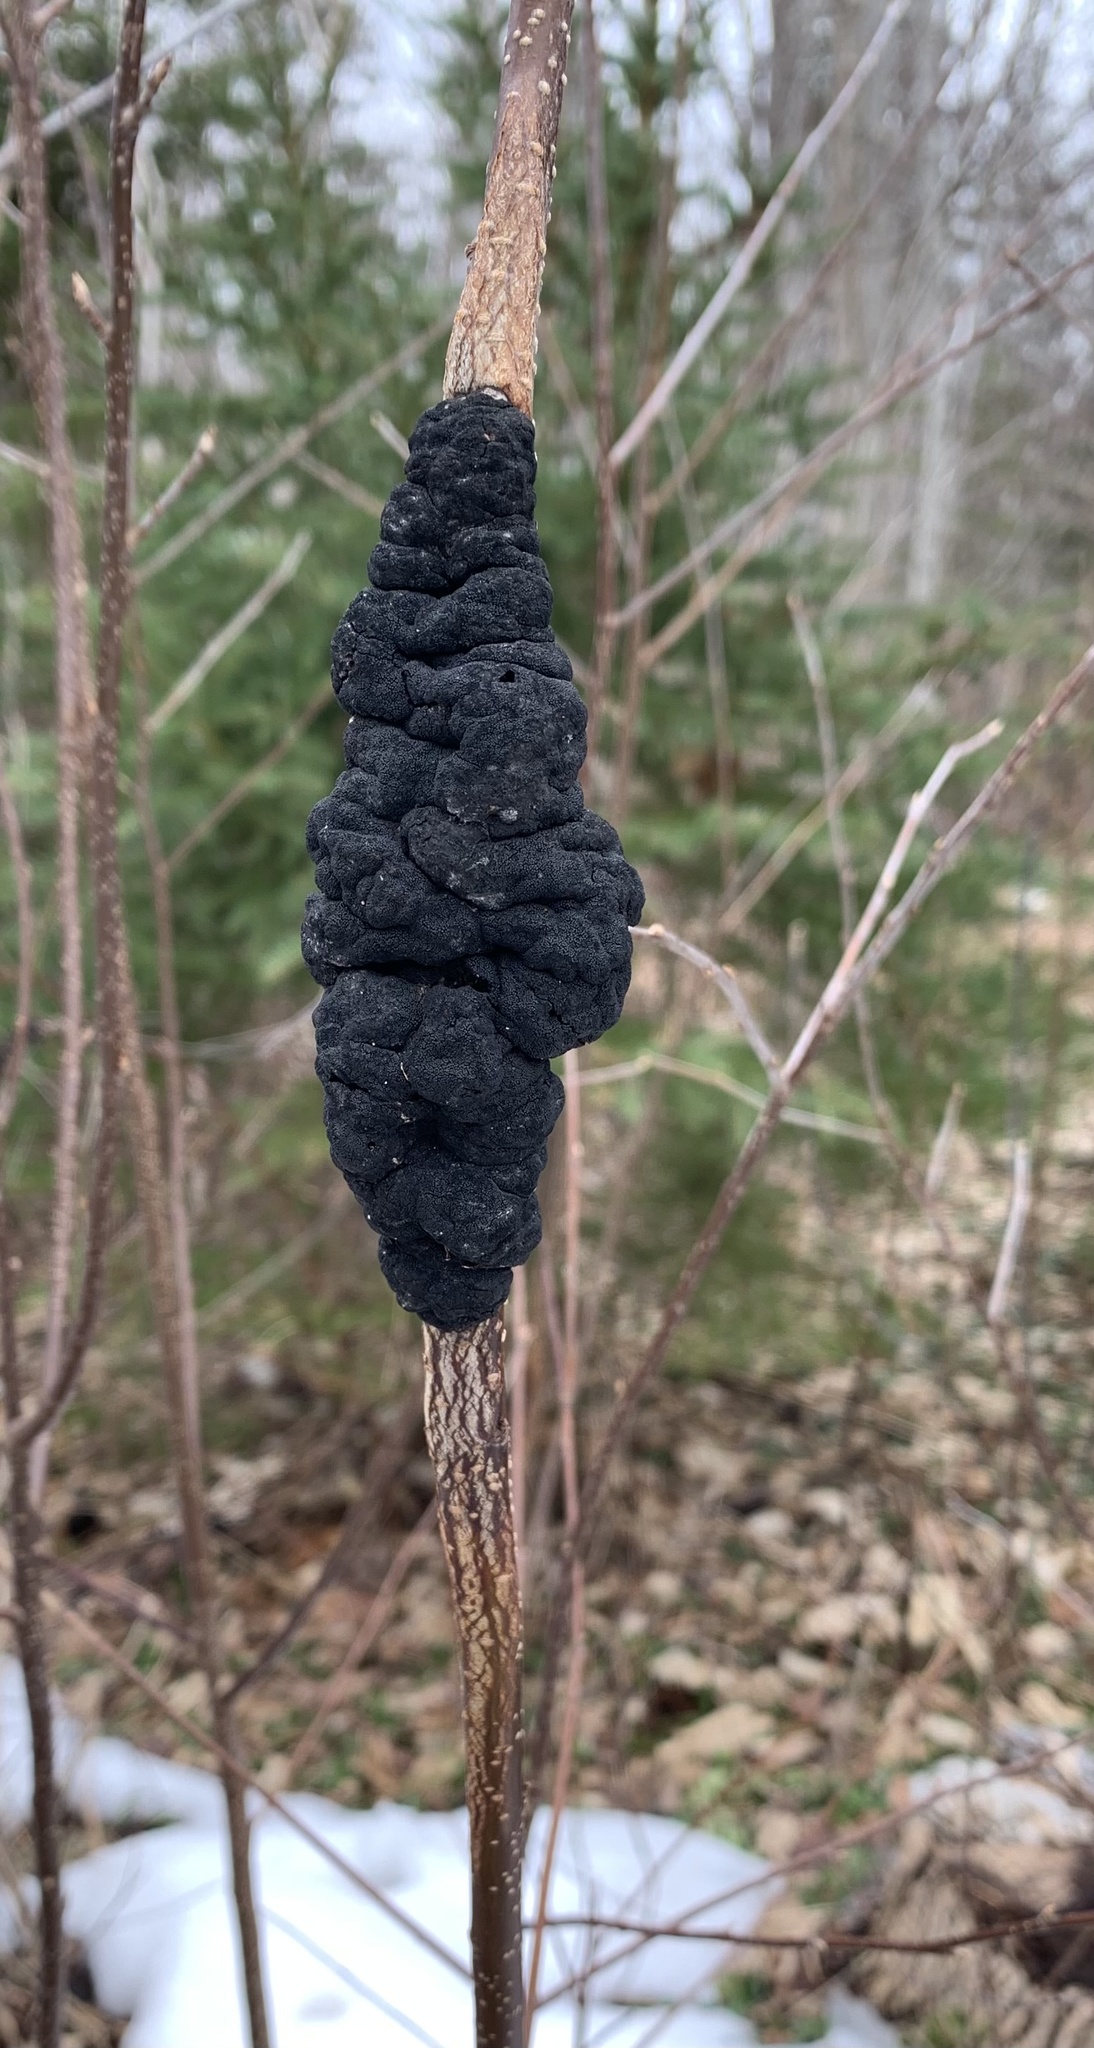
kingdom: Fungi
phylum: Ascomycota
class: Dothideomycetes
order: Venturiales
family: Venturiaceae
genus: Apiosporina
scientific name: Apiosporina morbosa
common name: Black knot
